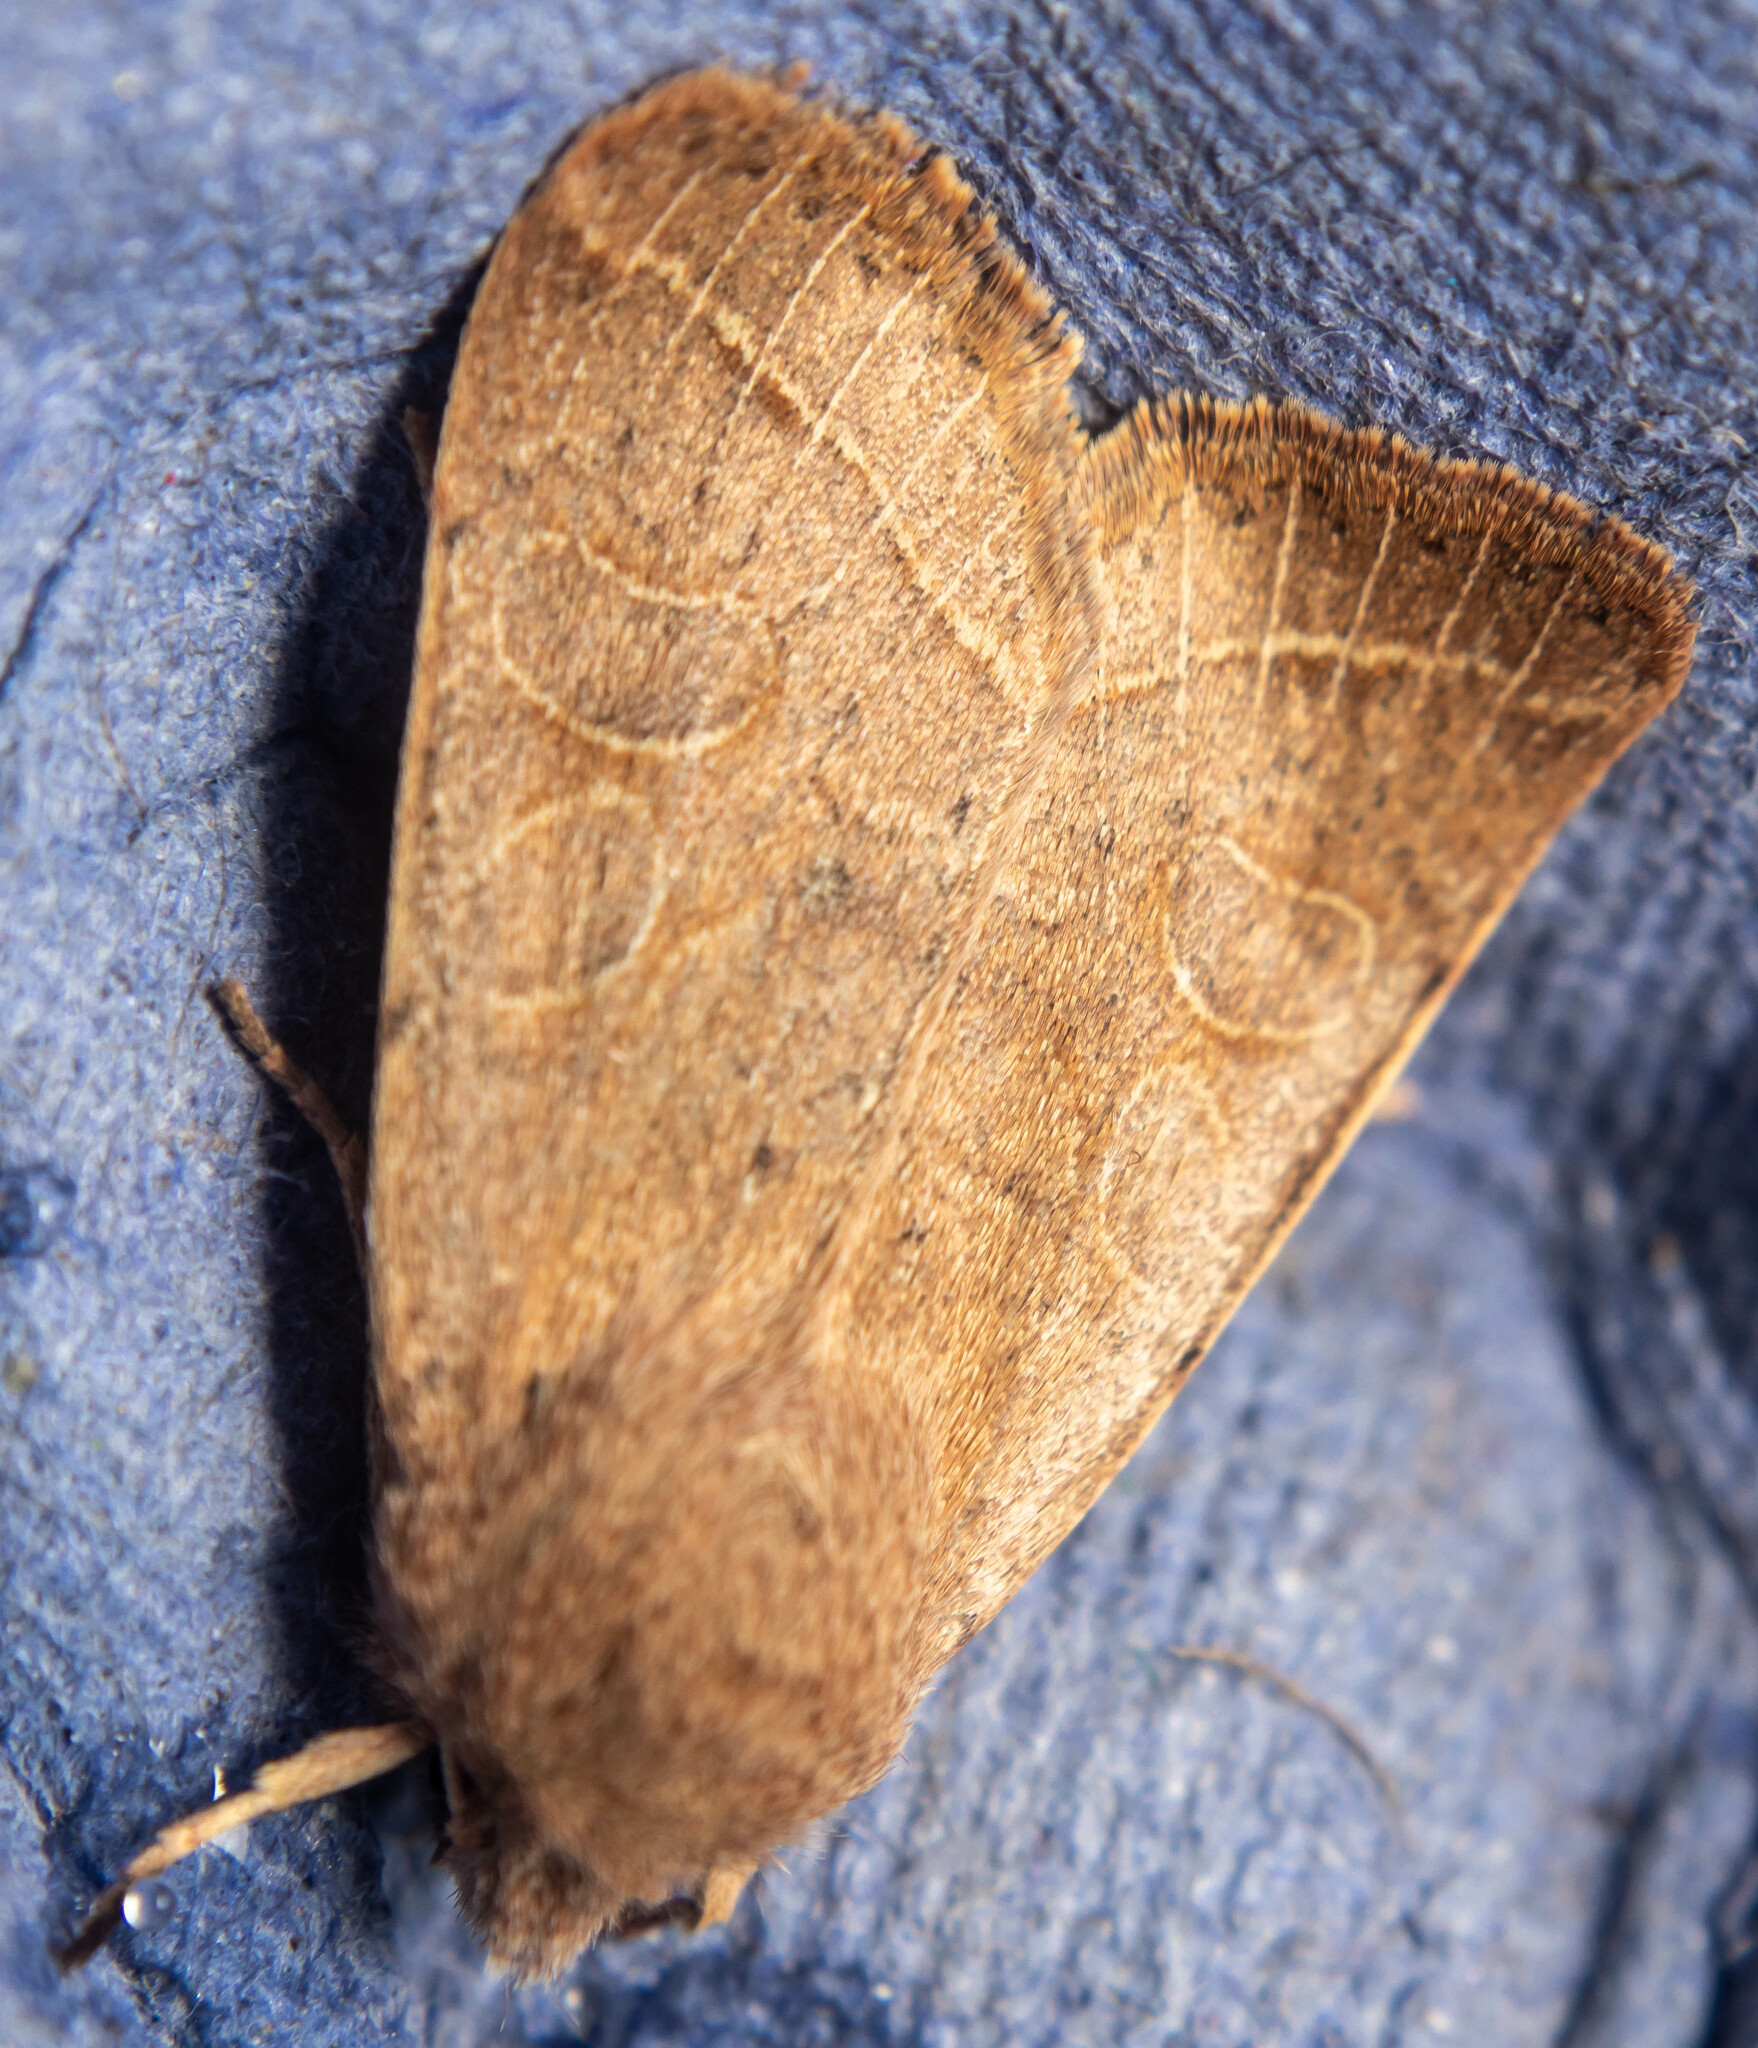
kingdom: Animalia
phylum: Arthropoda
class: Insecta
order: Lepidoptera
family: Noctuidae
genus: Orthosia
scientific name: Orthosia cerasi
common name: Common quaker
